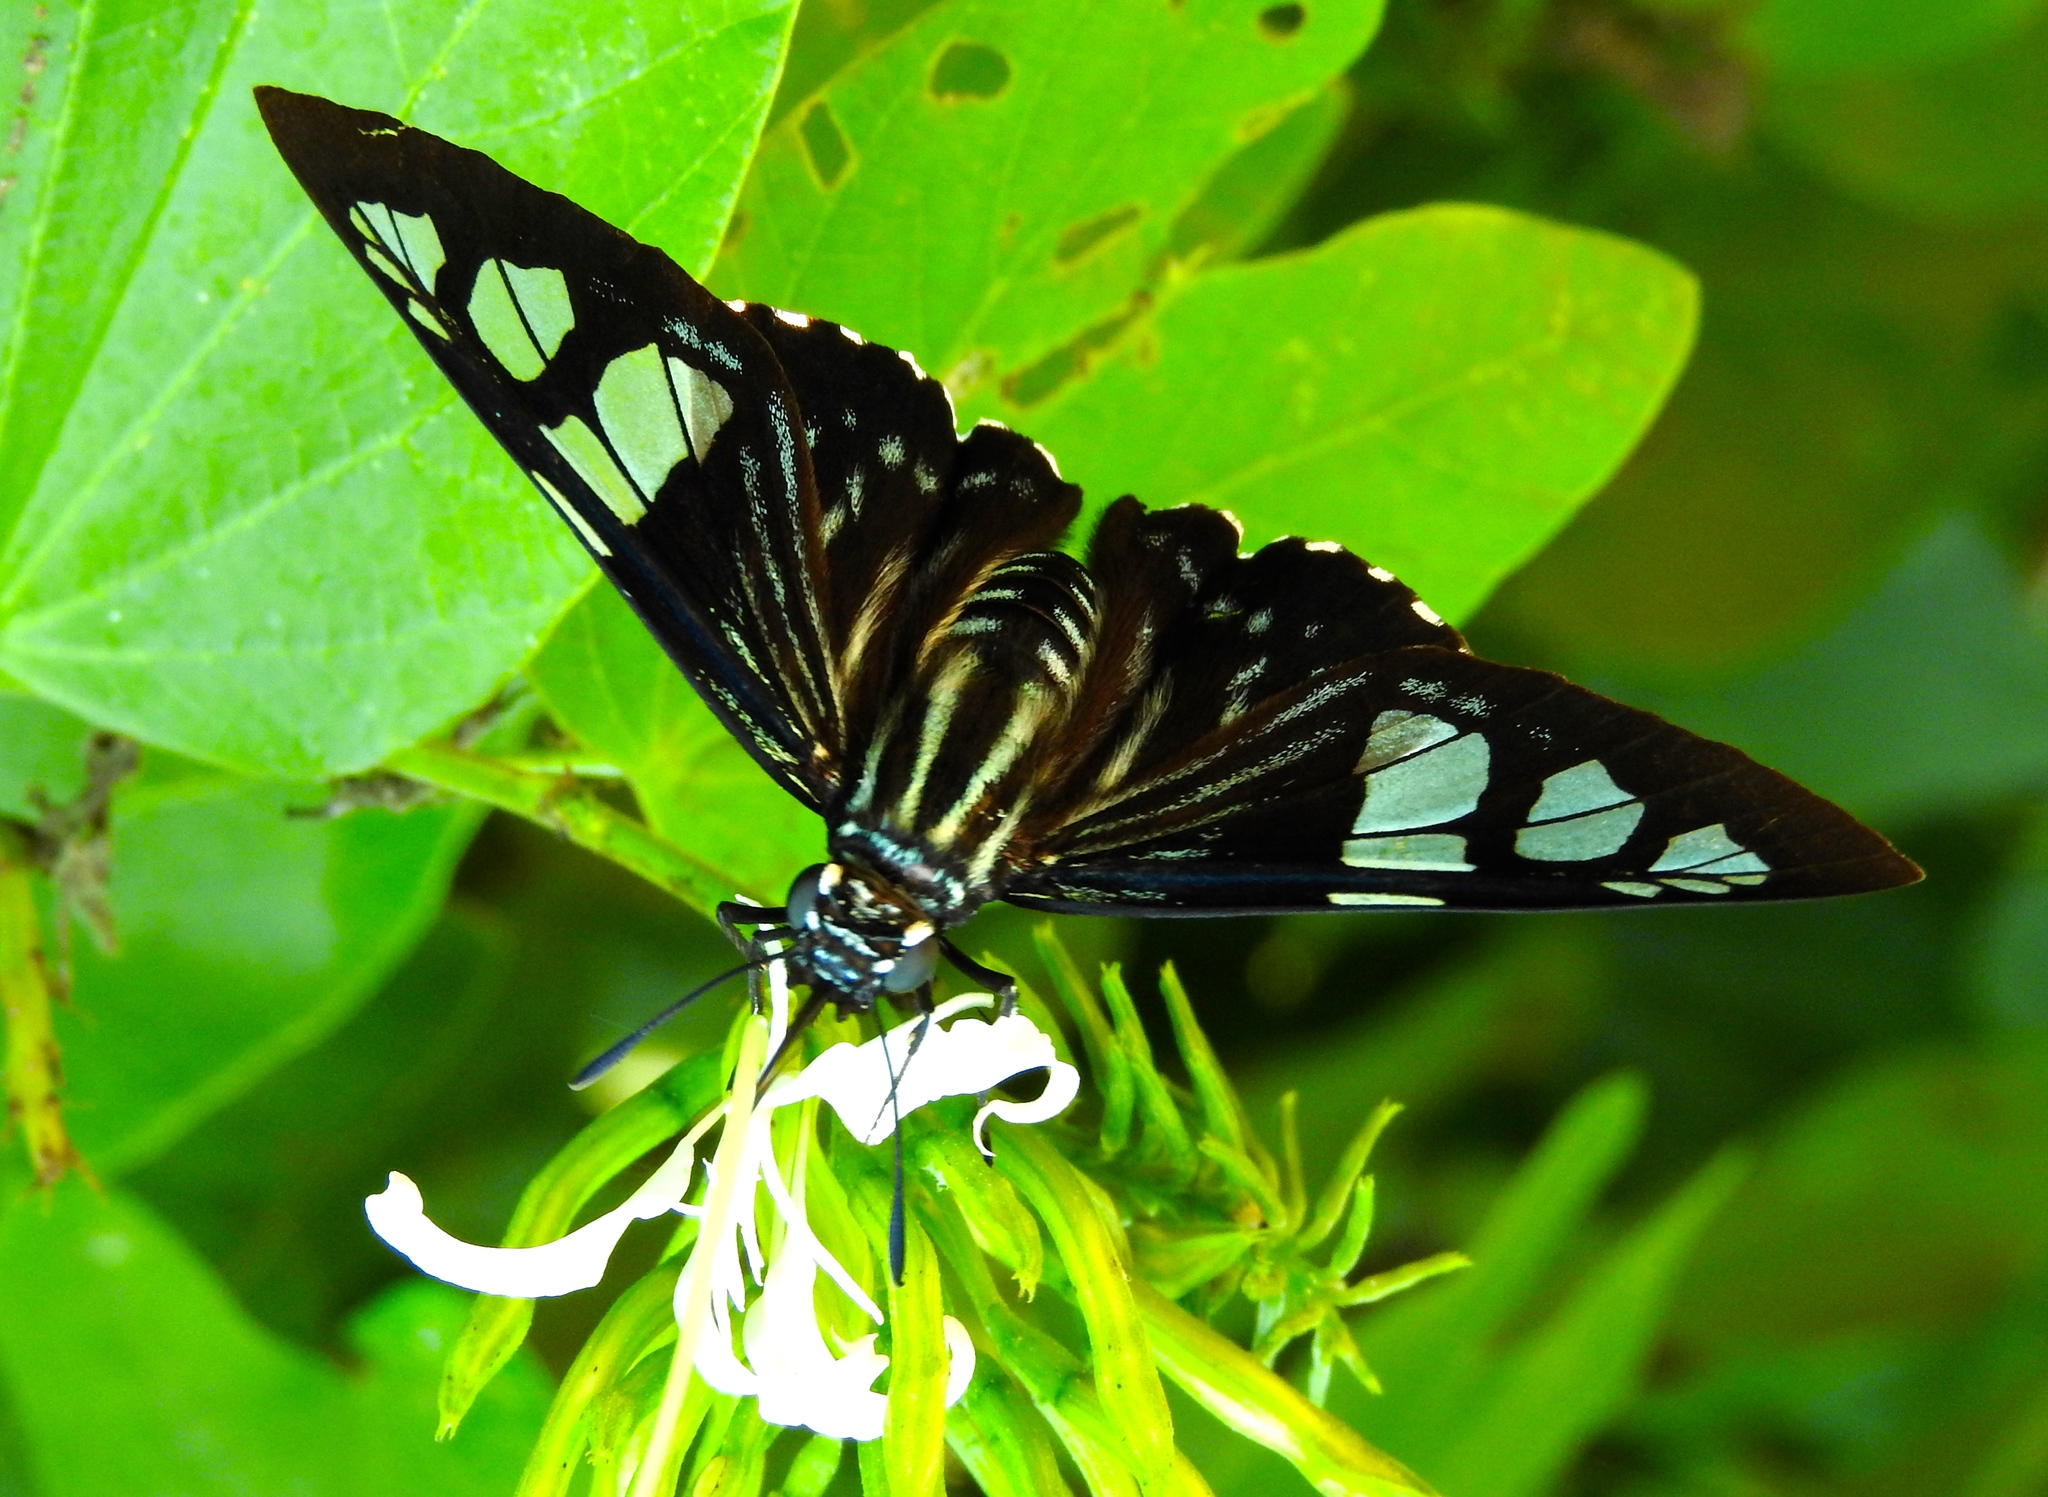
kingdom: Animalia
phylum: Arthropoda
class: Insecta
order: Lepidoptera
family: Hesperiidae
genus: Phocides
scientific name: Phocides pigmalion
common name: Mangrove skipper
